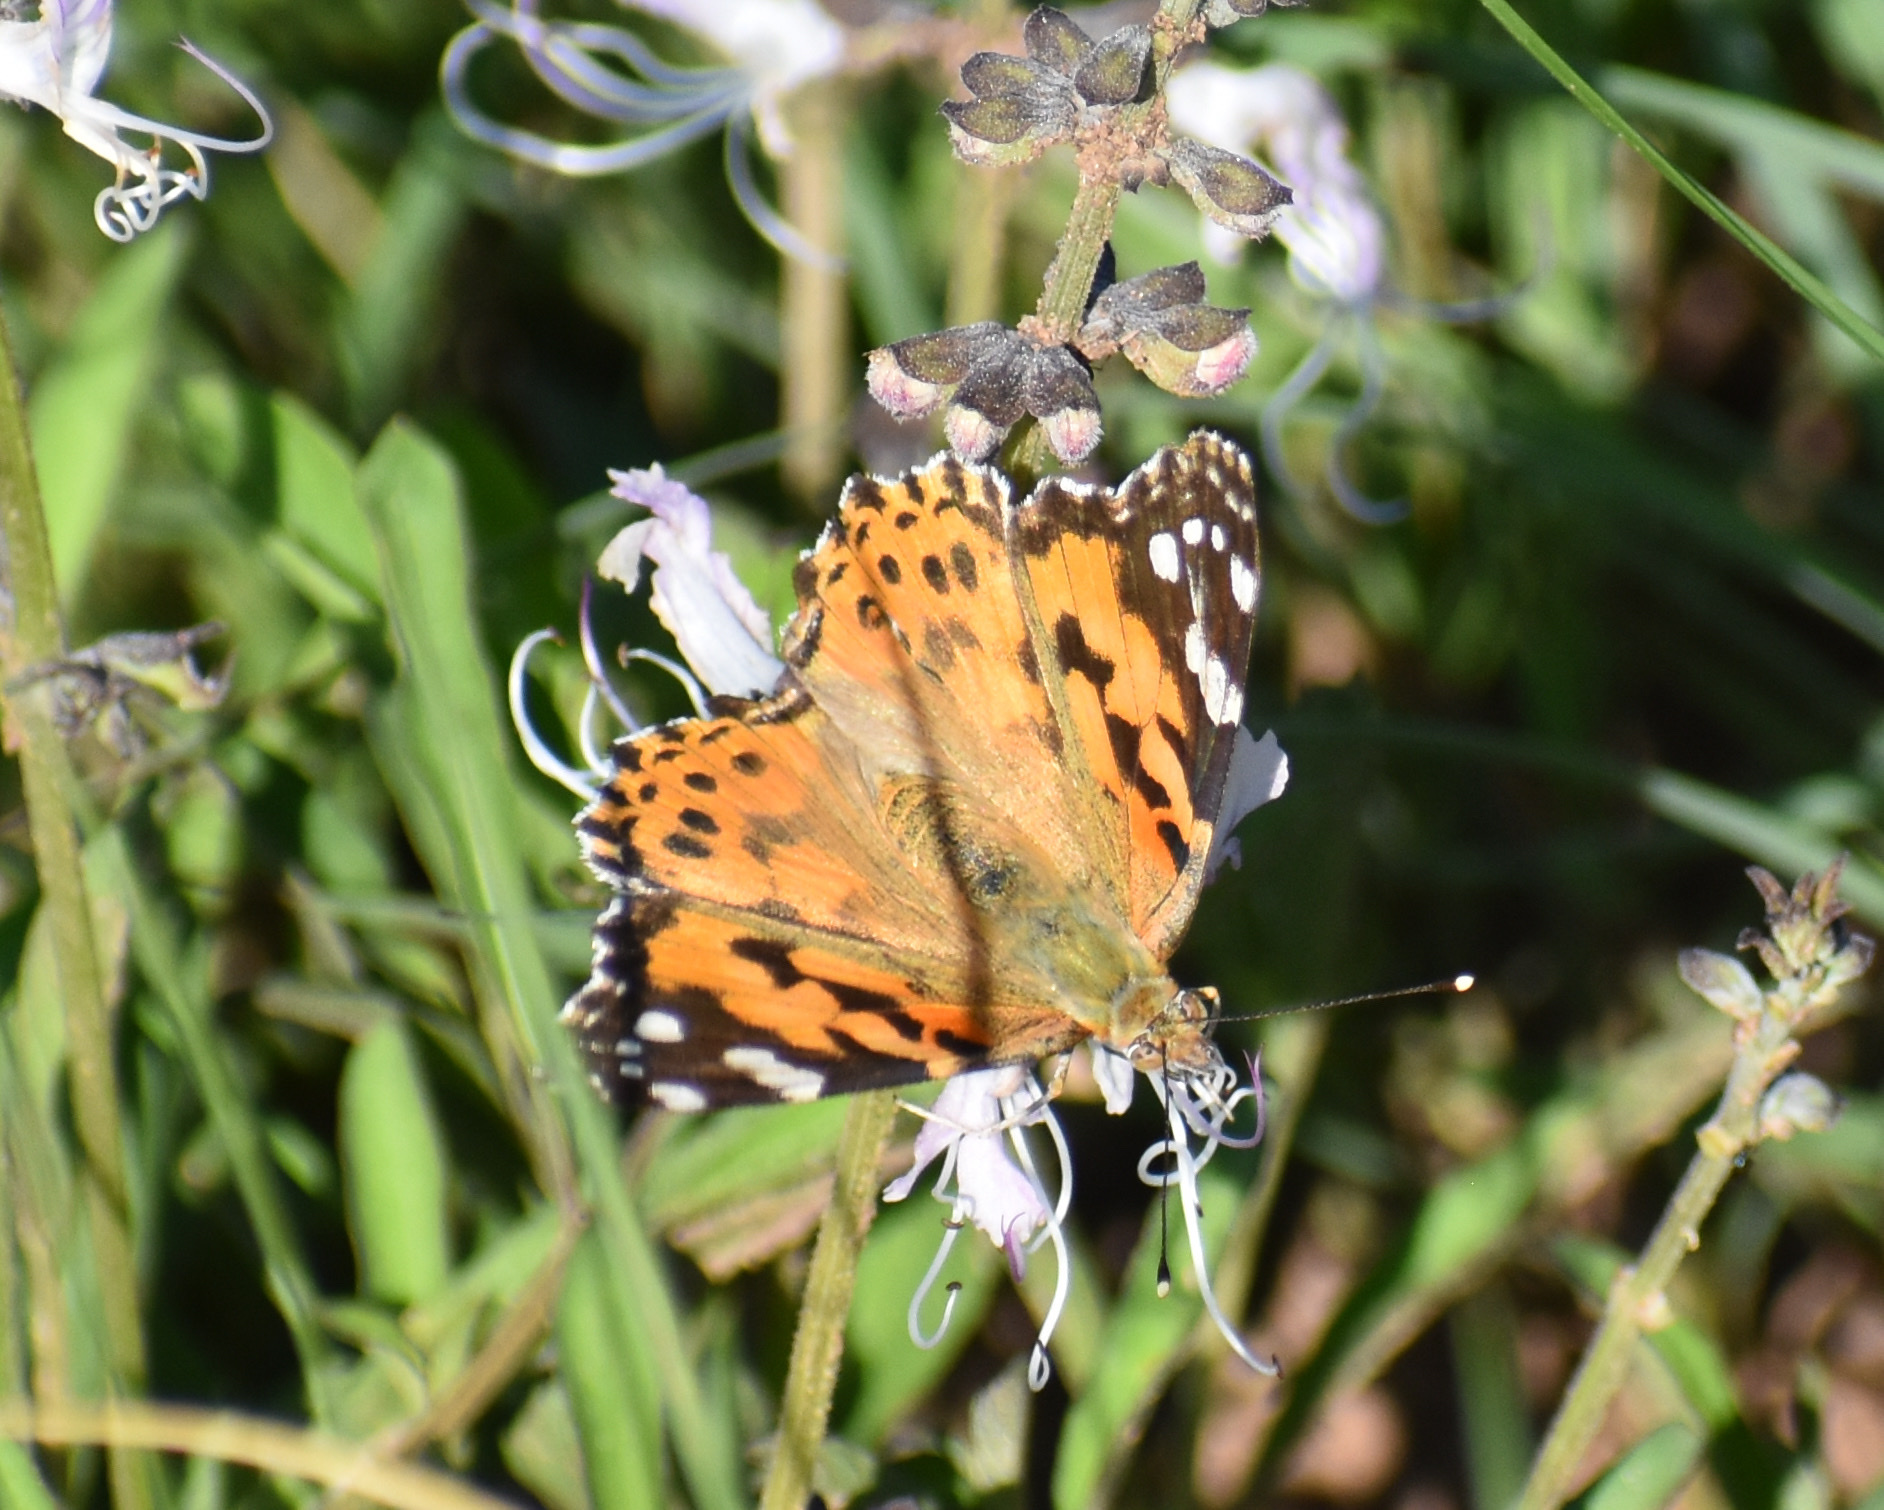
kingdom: Animalia
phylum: Arthropoda
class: Insecta
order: Lepidoptera
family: Nymphalidae
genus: Vanessa
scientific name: Vanessa cardui
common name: Painted lady
